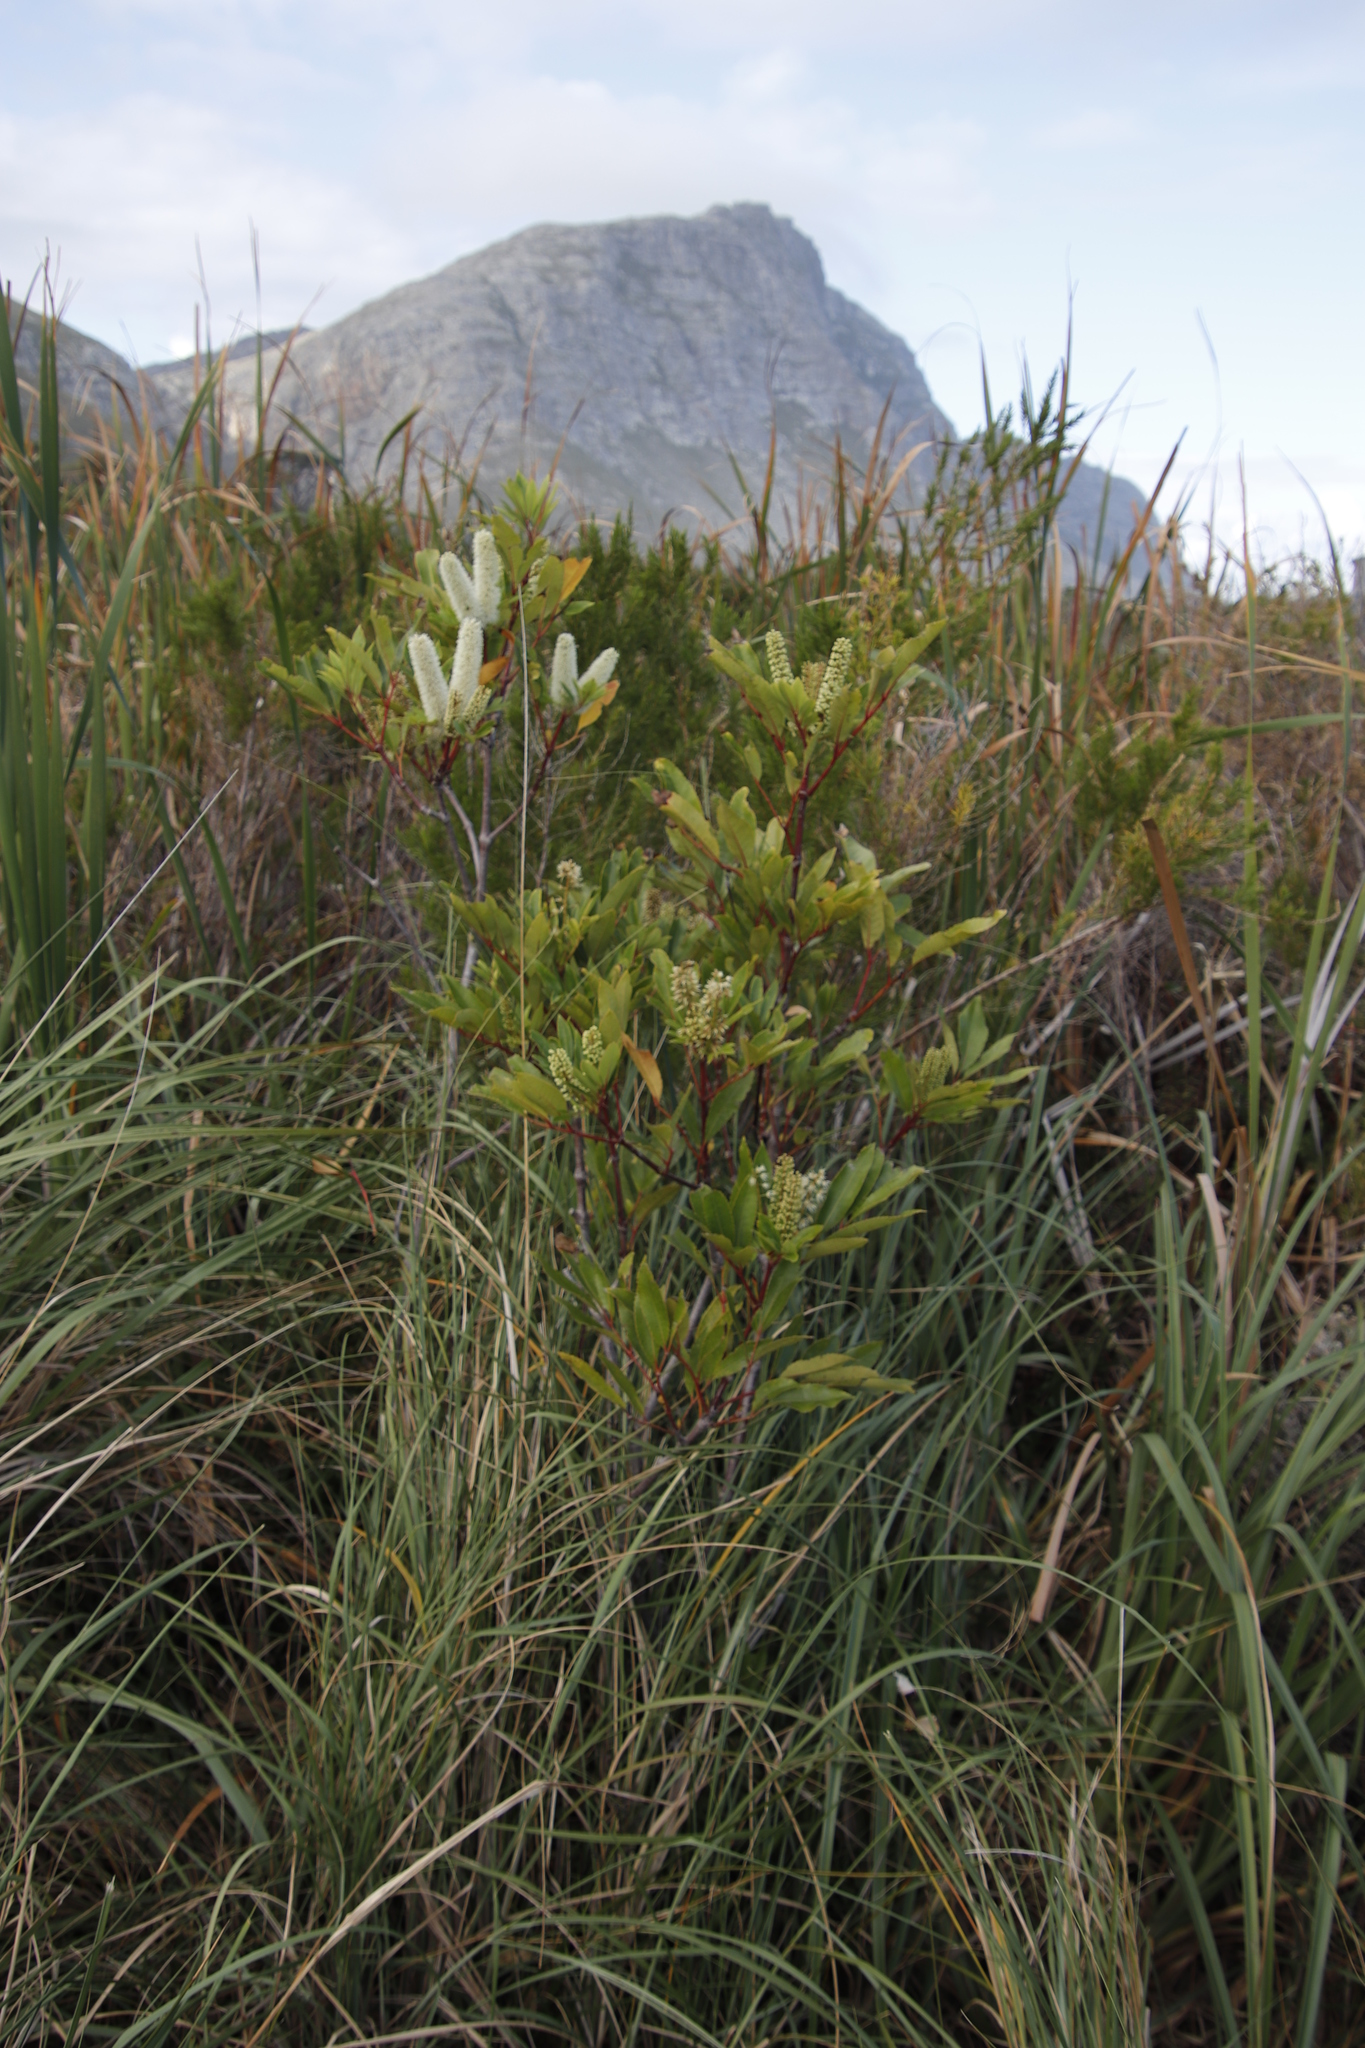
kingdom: Plantae
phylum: Tracheophyta
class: Magnoliopsida
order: Oxalidales
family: Cunoniaceae
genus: Cunonia
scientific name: Cunonia capensis
